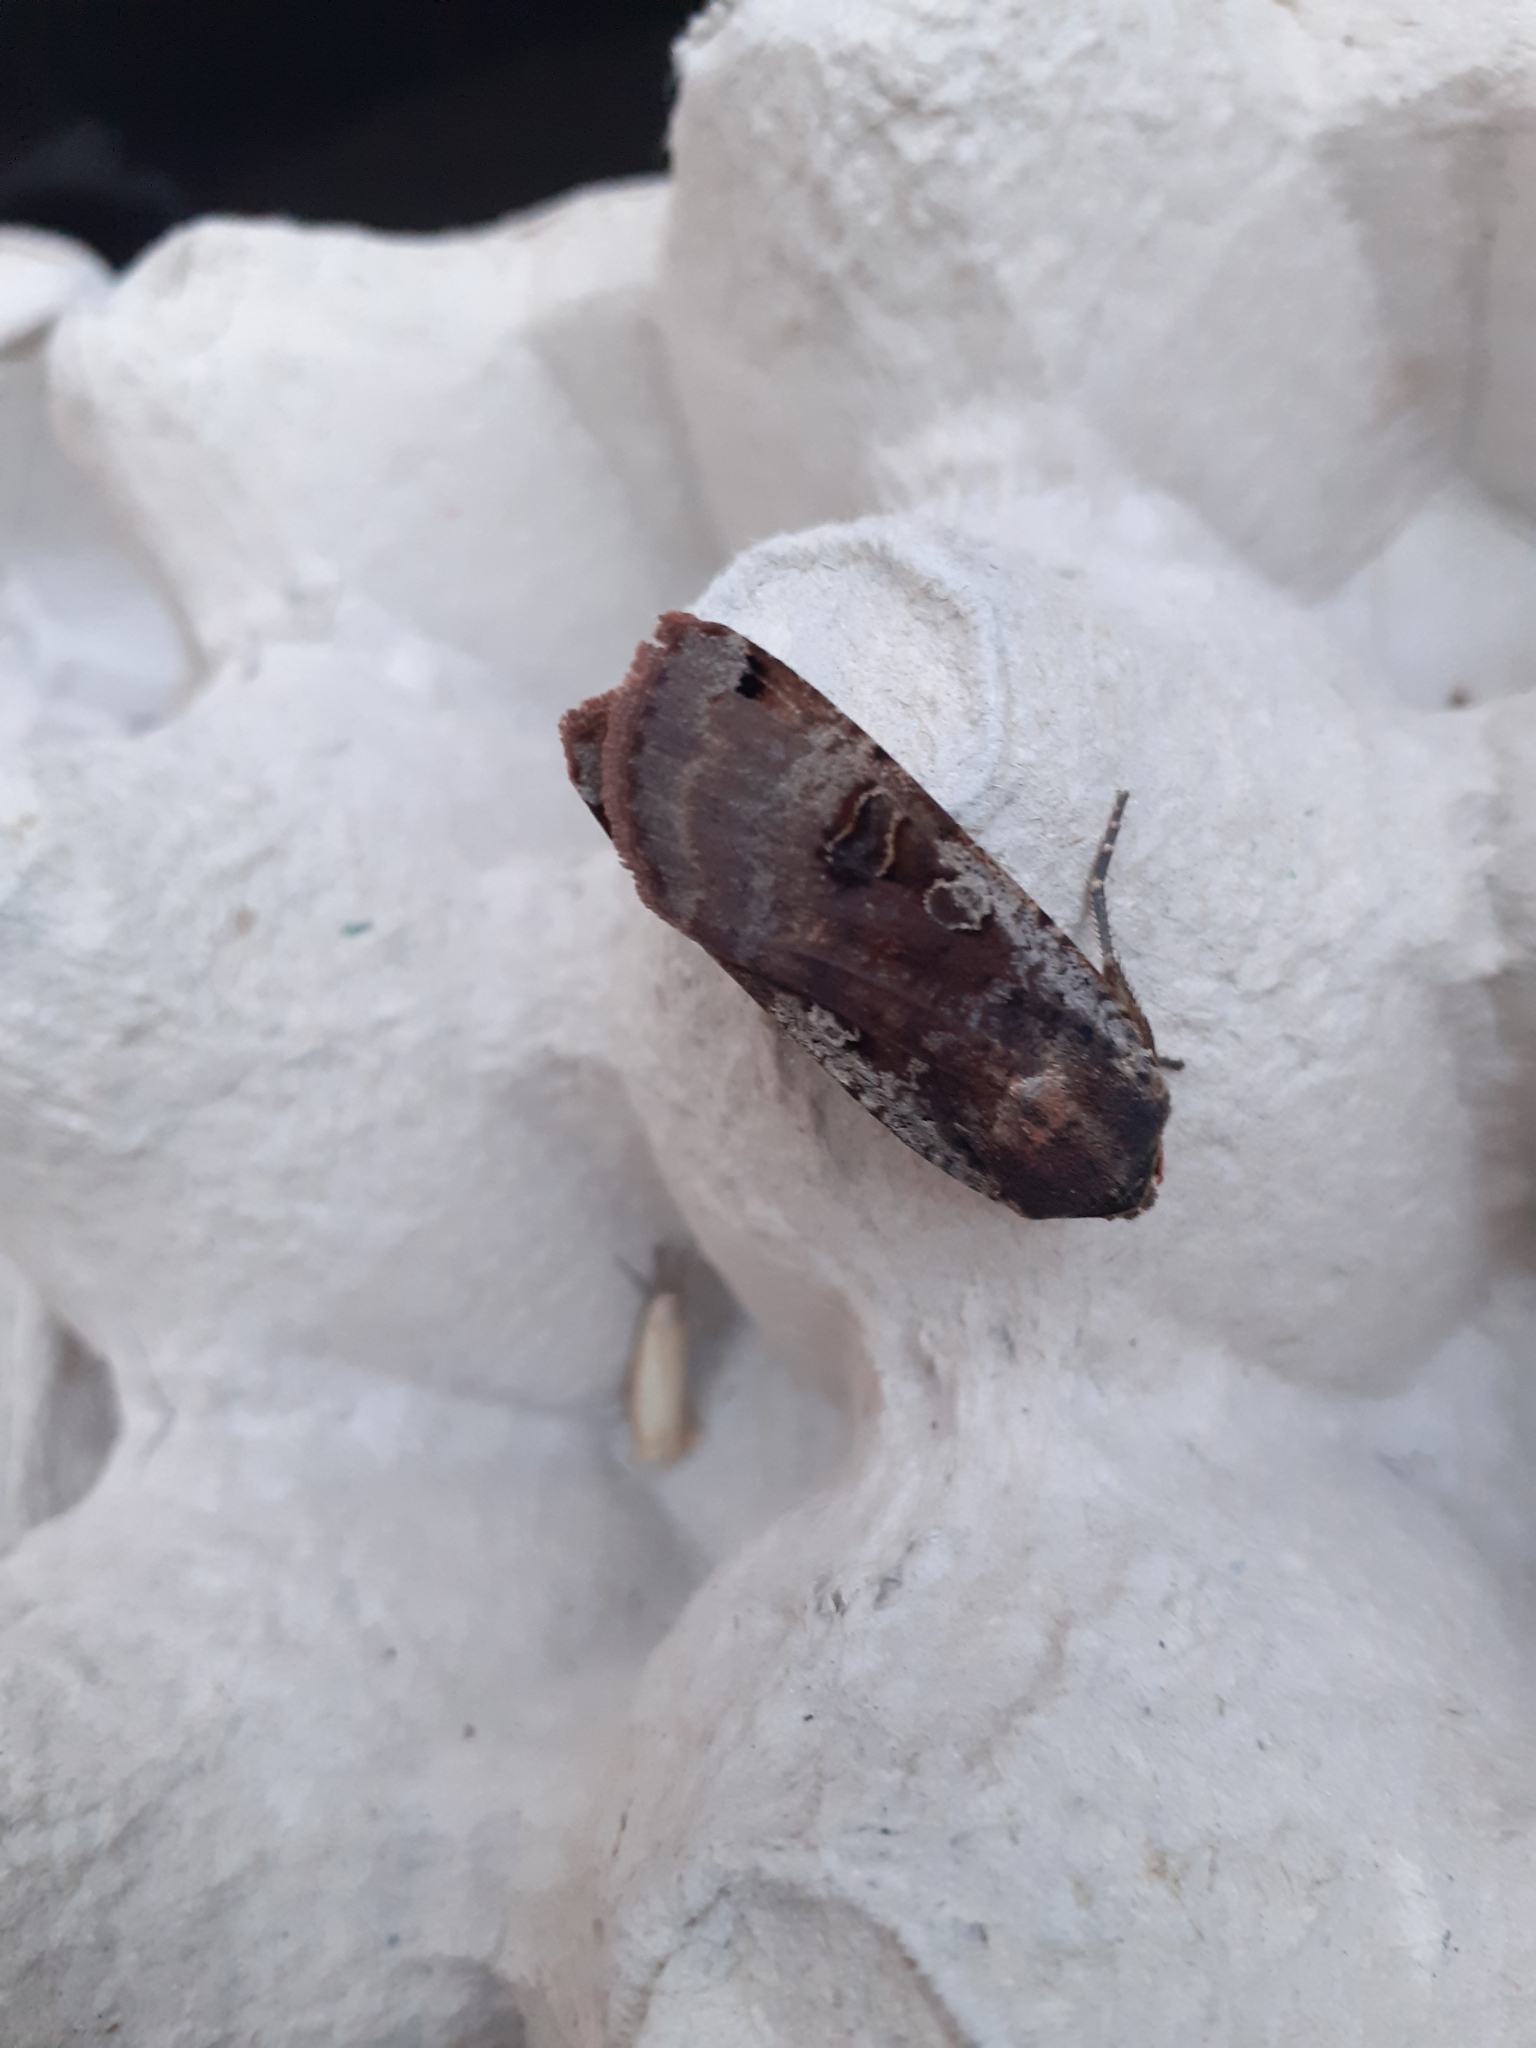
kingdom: Animalia
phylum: Arthropoda
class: Insecta
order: Lepidoptera
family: Noctuidae
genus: Noctua
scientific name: Noctua pronuba
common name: Large yellow underwing
